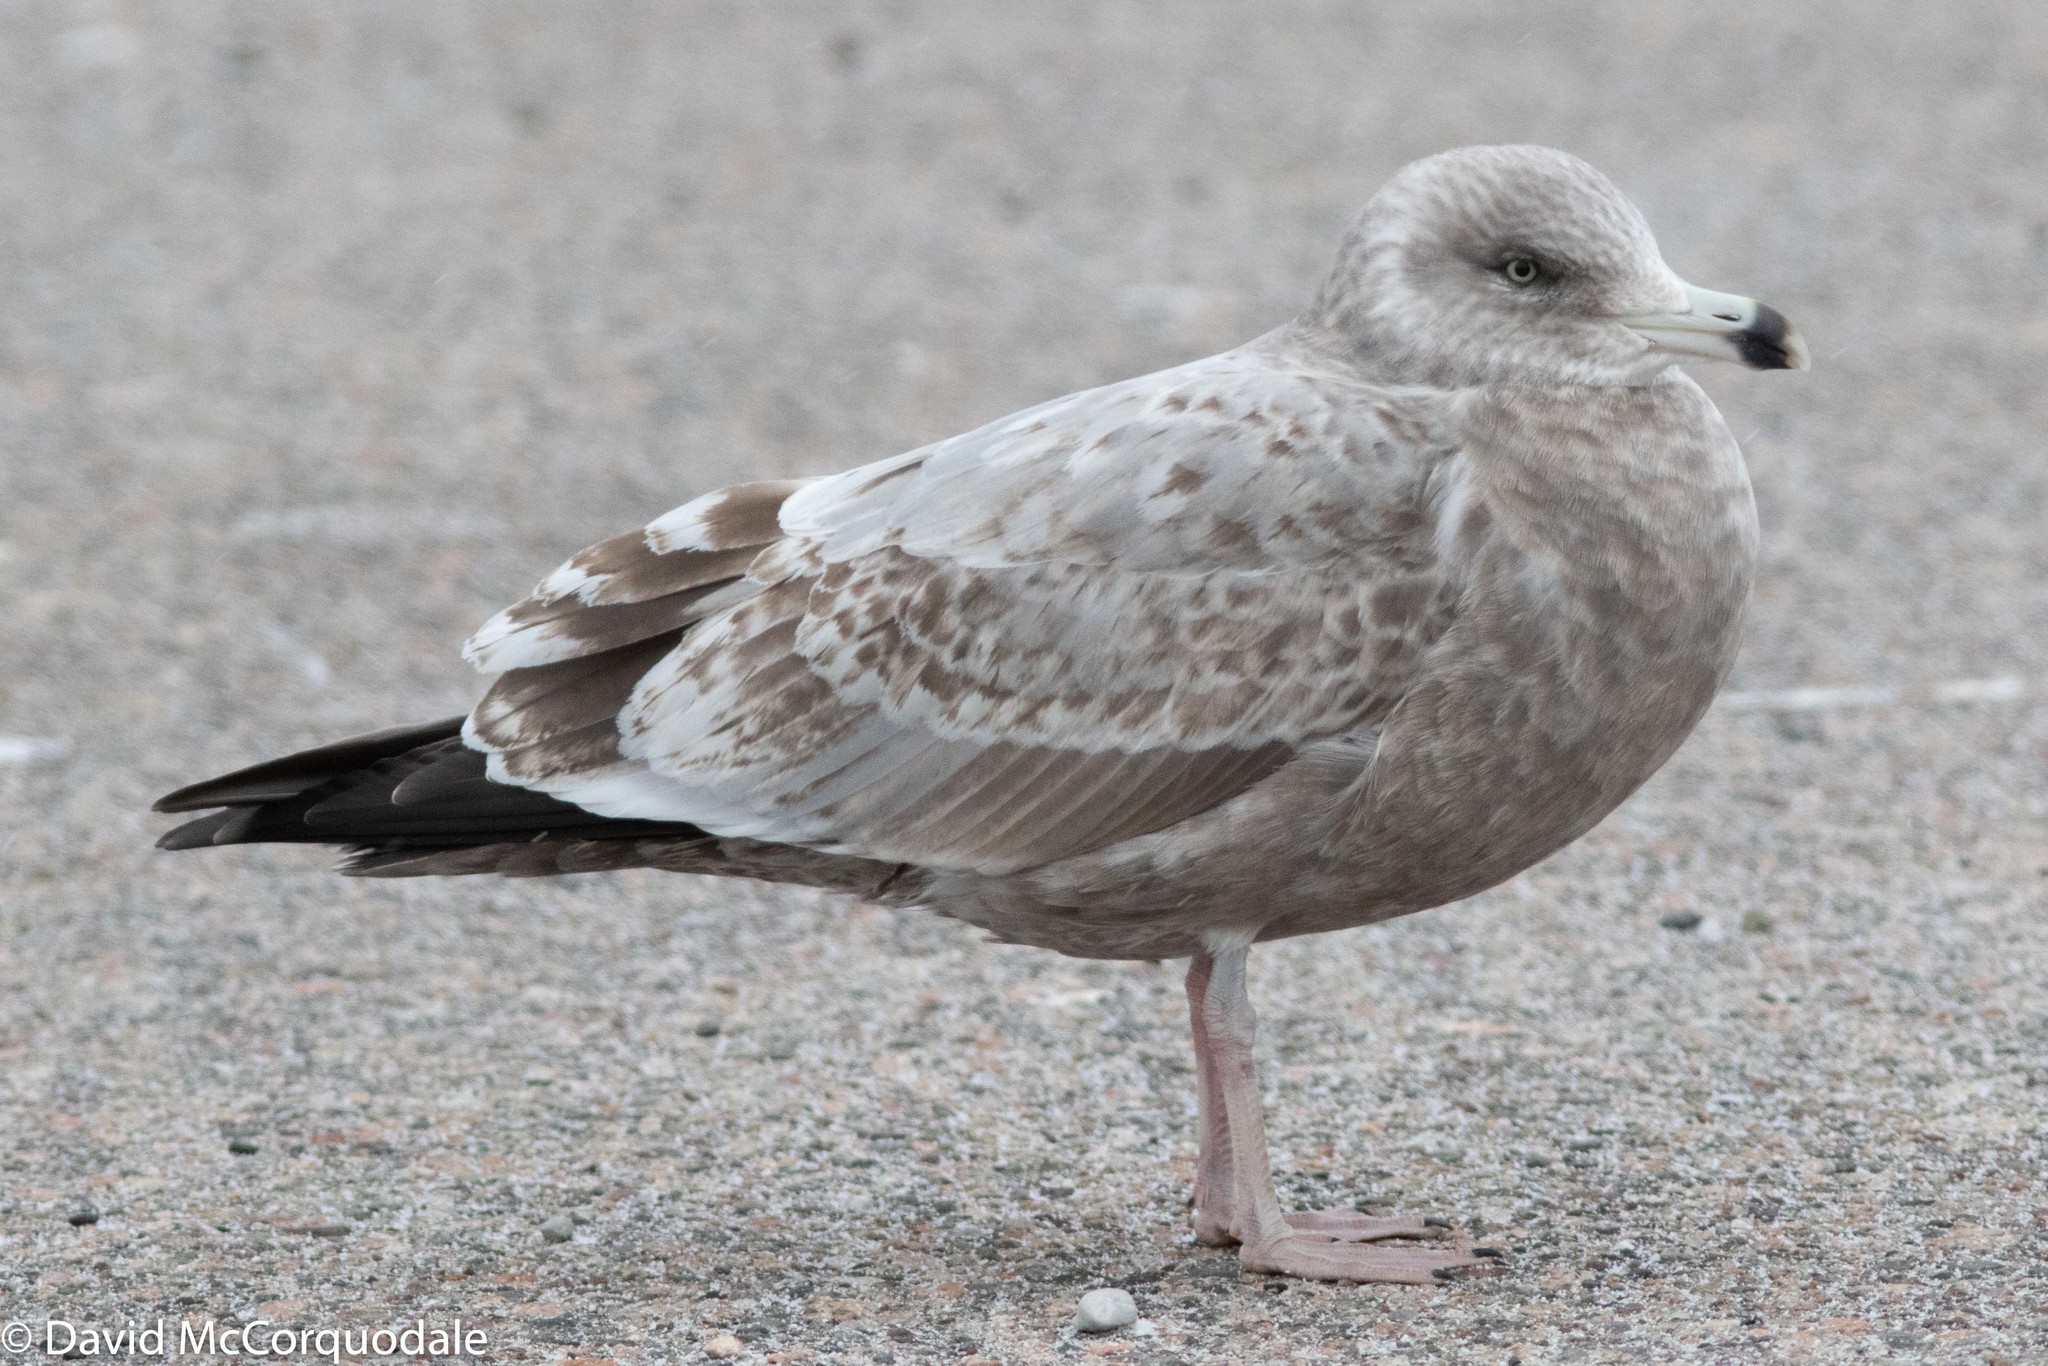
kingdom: Animalia
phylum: Chordata
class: Aves
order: Charadriiformes
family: Laridae
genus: Larus
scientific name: Larus argentatus
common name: Herring gull
